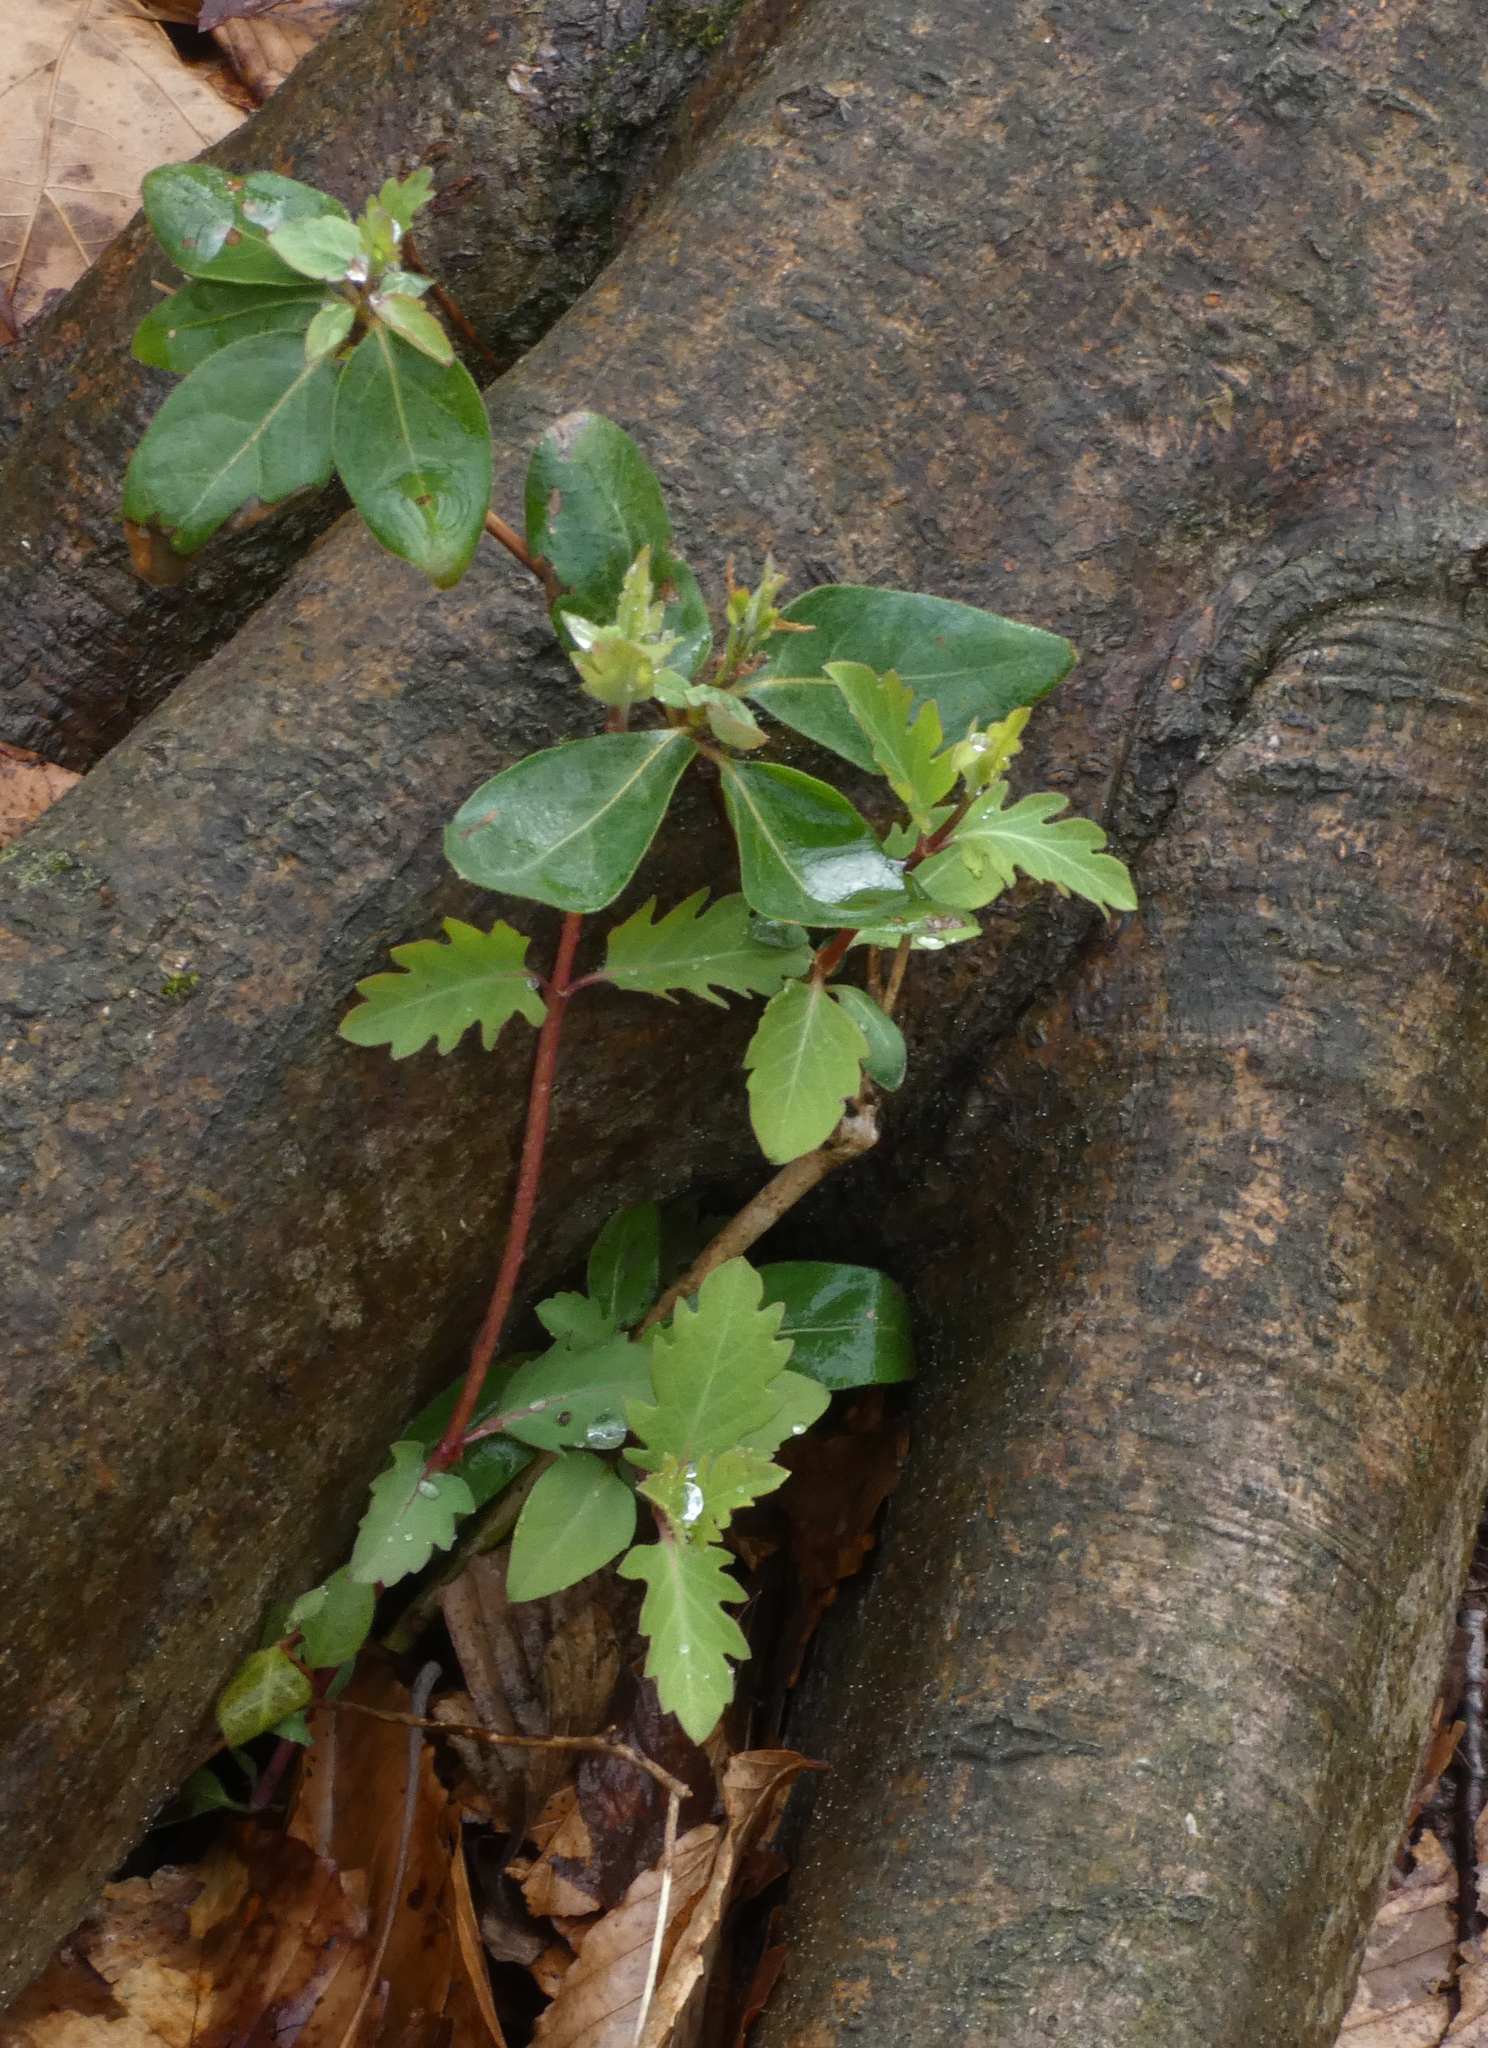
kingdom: Plantae
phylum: Tracheophyta
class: Magnoliopsida
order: Dipsacales
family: Caprifoliaceae
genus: Lonicera
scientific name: Lonicera japonica
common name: Japanese honeysuckle
